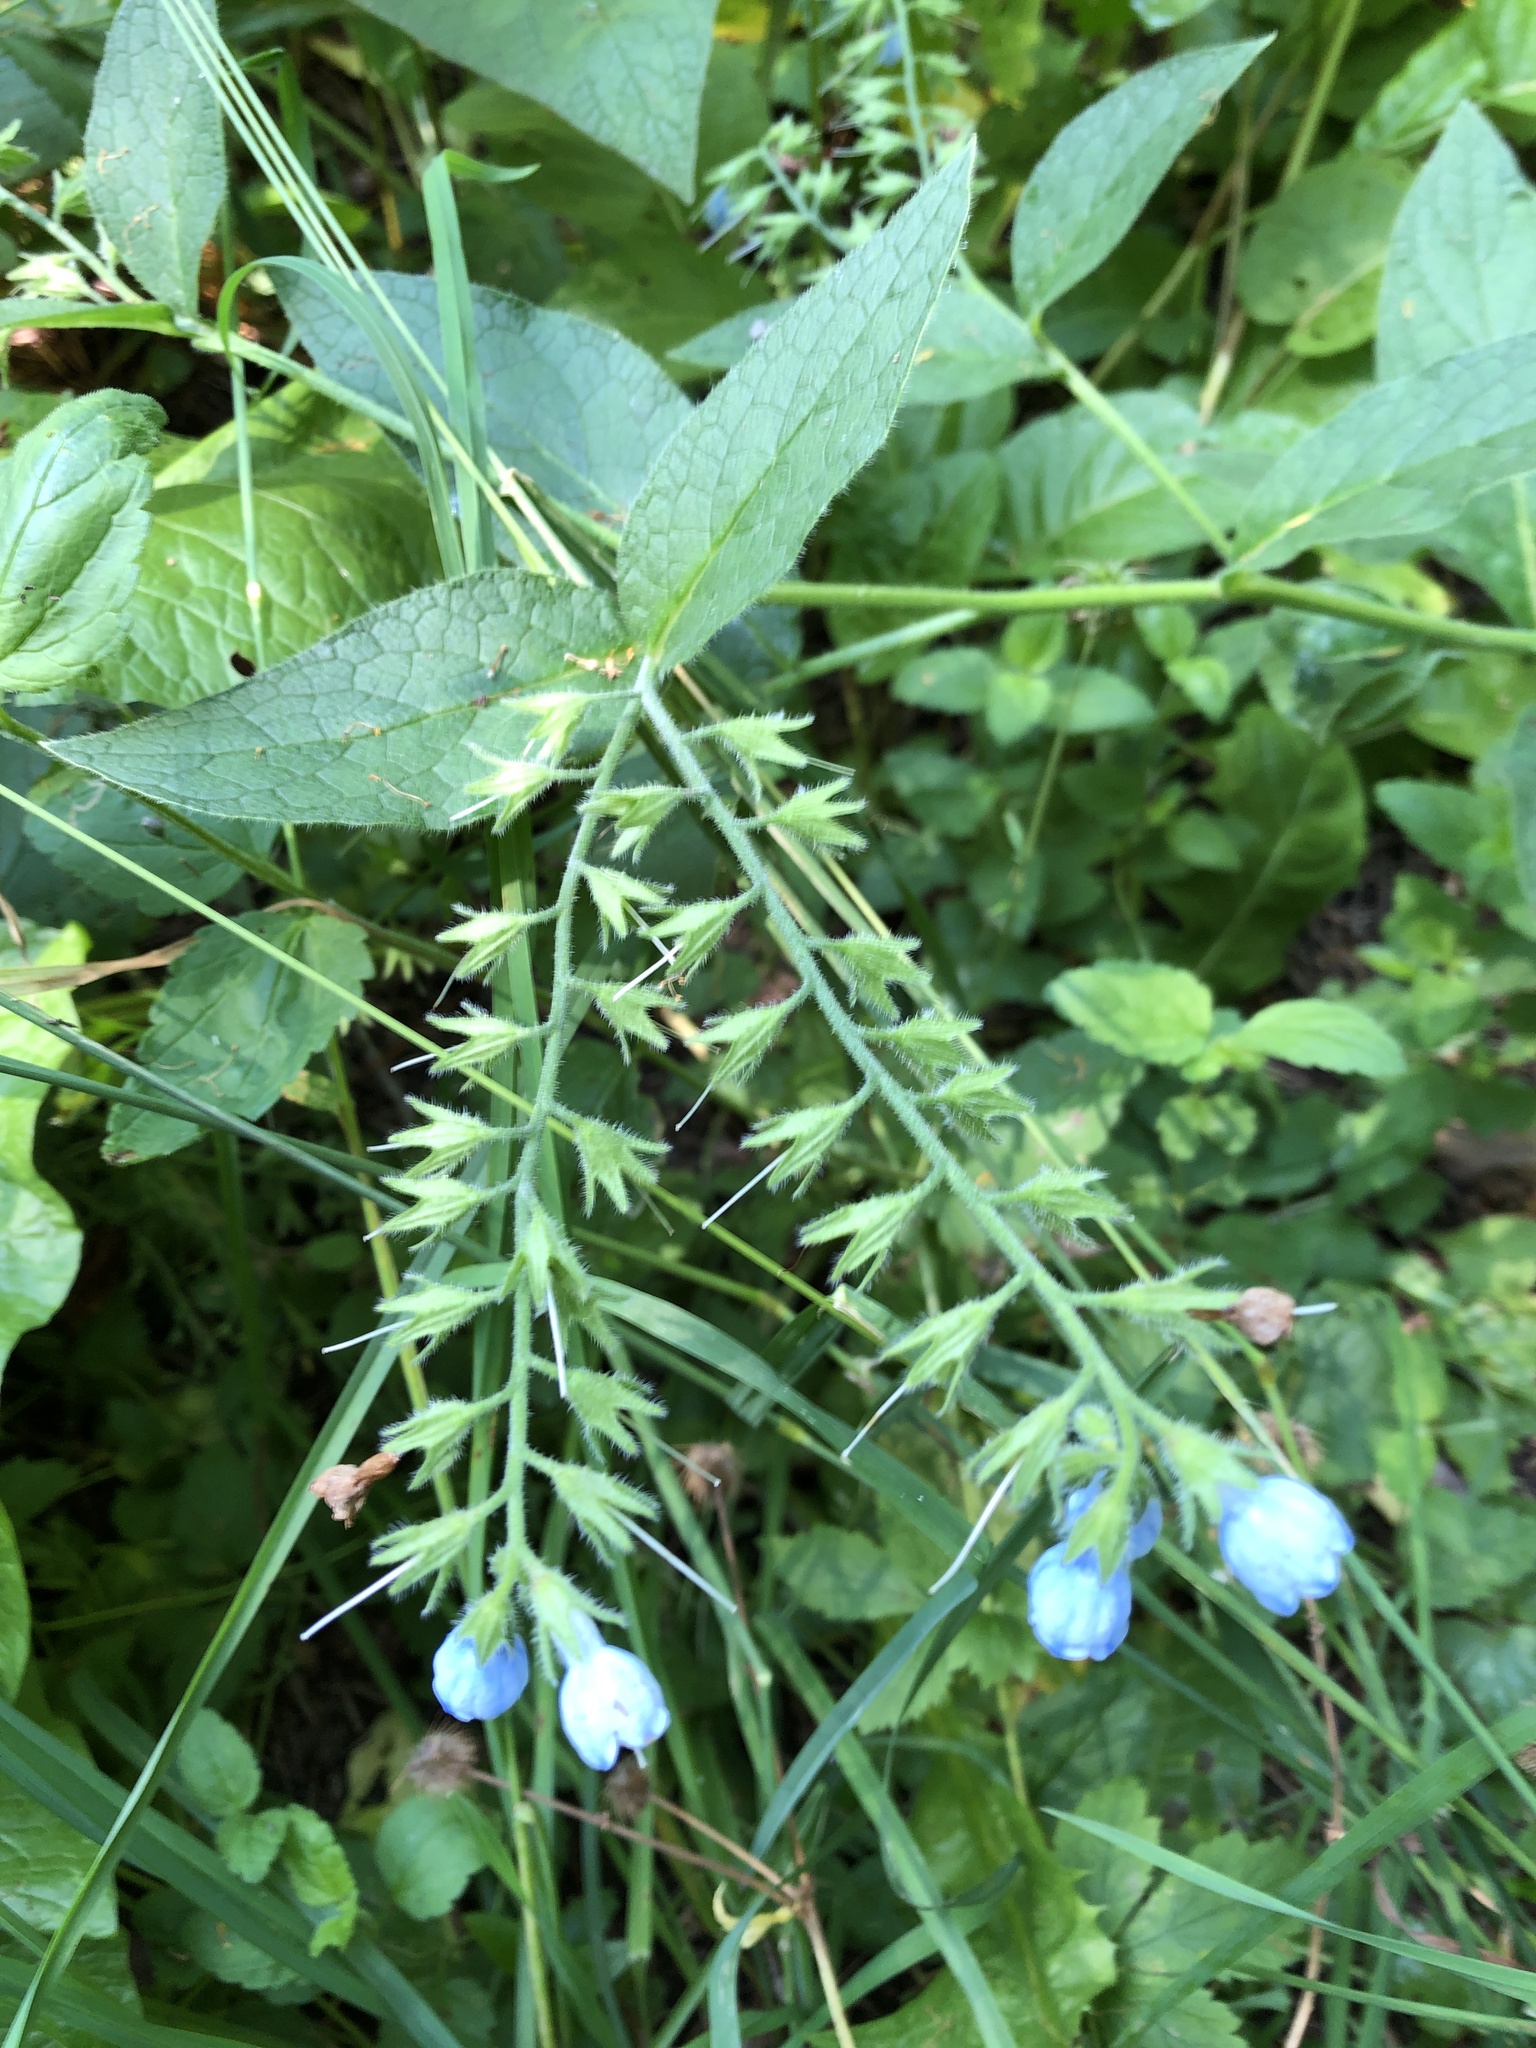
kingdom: Plantae
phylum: Tracheophyta
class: Magnoliopsida
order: Boraginales
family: Boraginaceae
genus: Symphytum
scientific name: Symphytum caucasicum
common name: Caucasian comfrey
